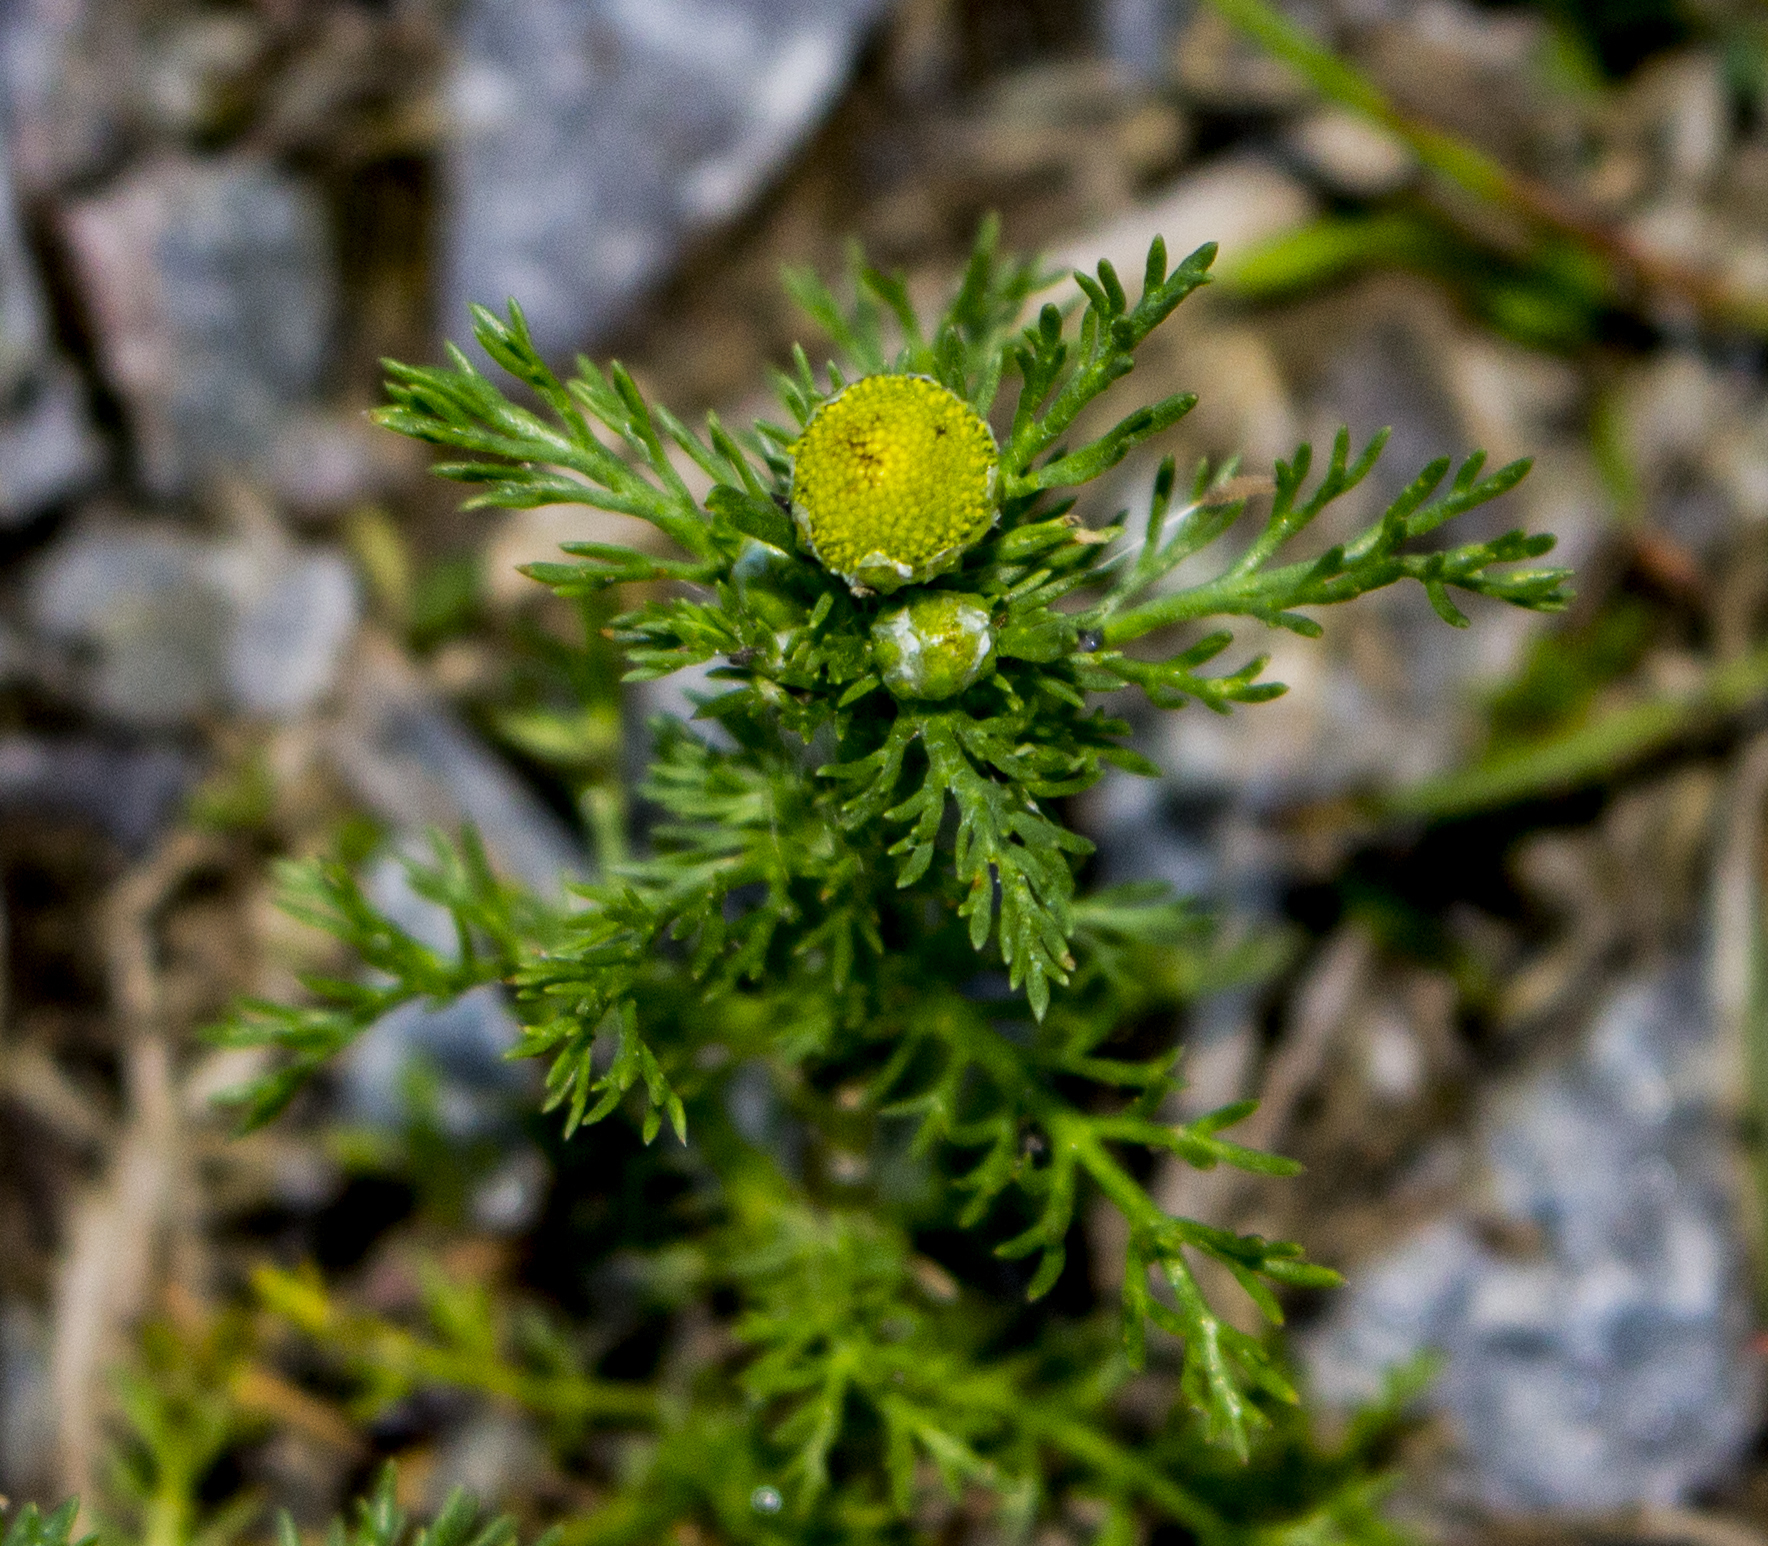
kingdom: Plantae
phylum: Tracheophyta
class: Magnoliopsida
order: Asterales
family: Asteraceae
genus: Matricaria
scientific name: Matricaria discoidea
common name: Disc mayweed
